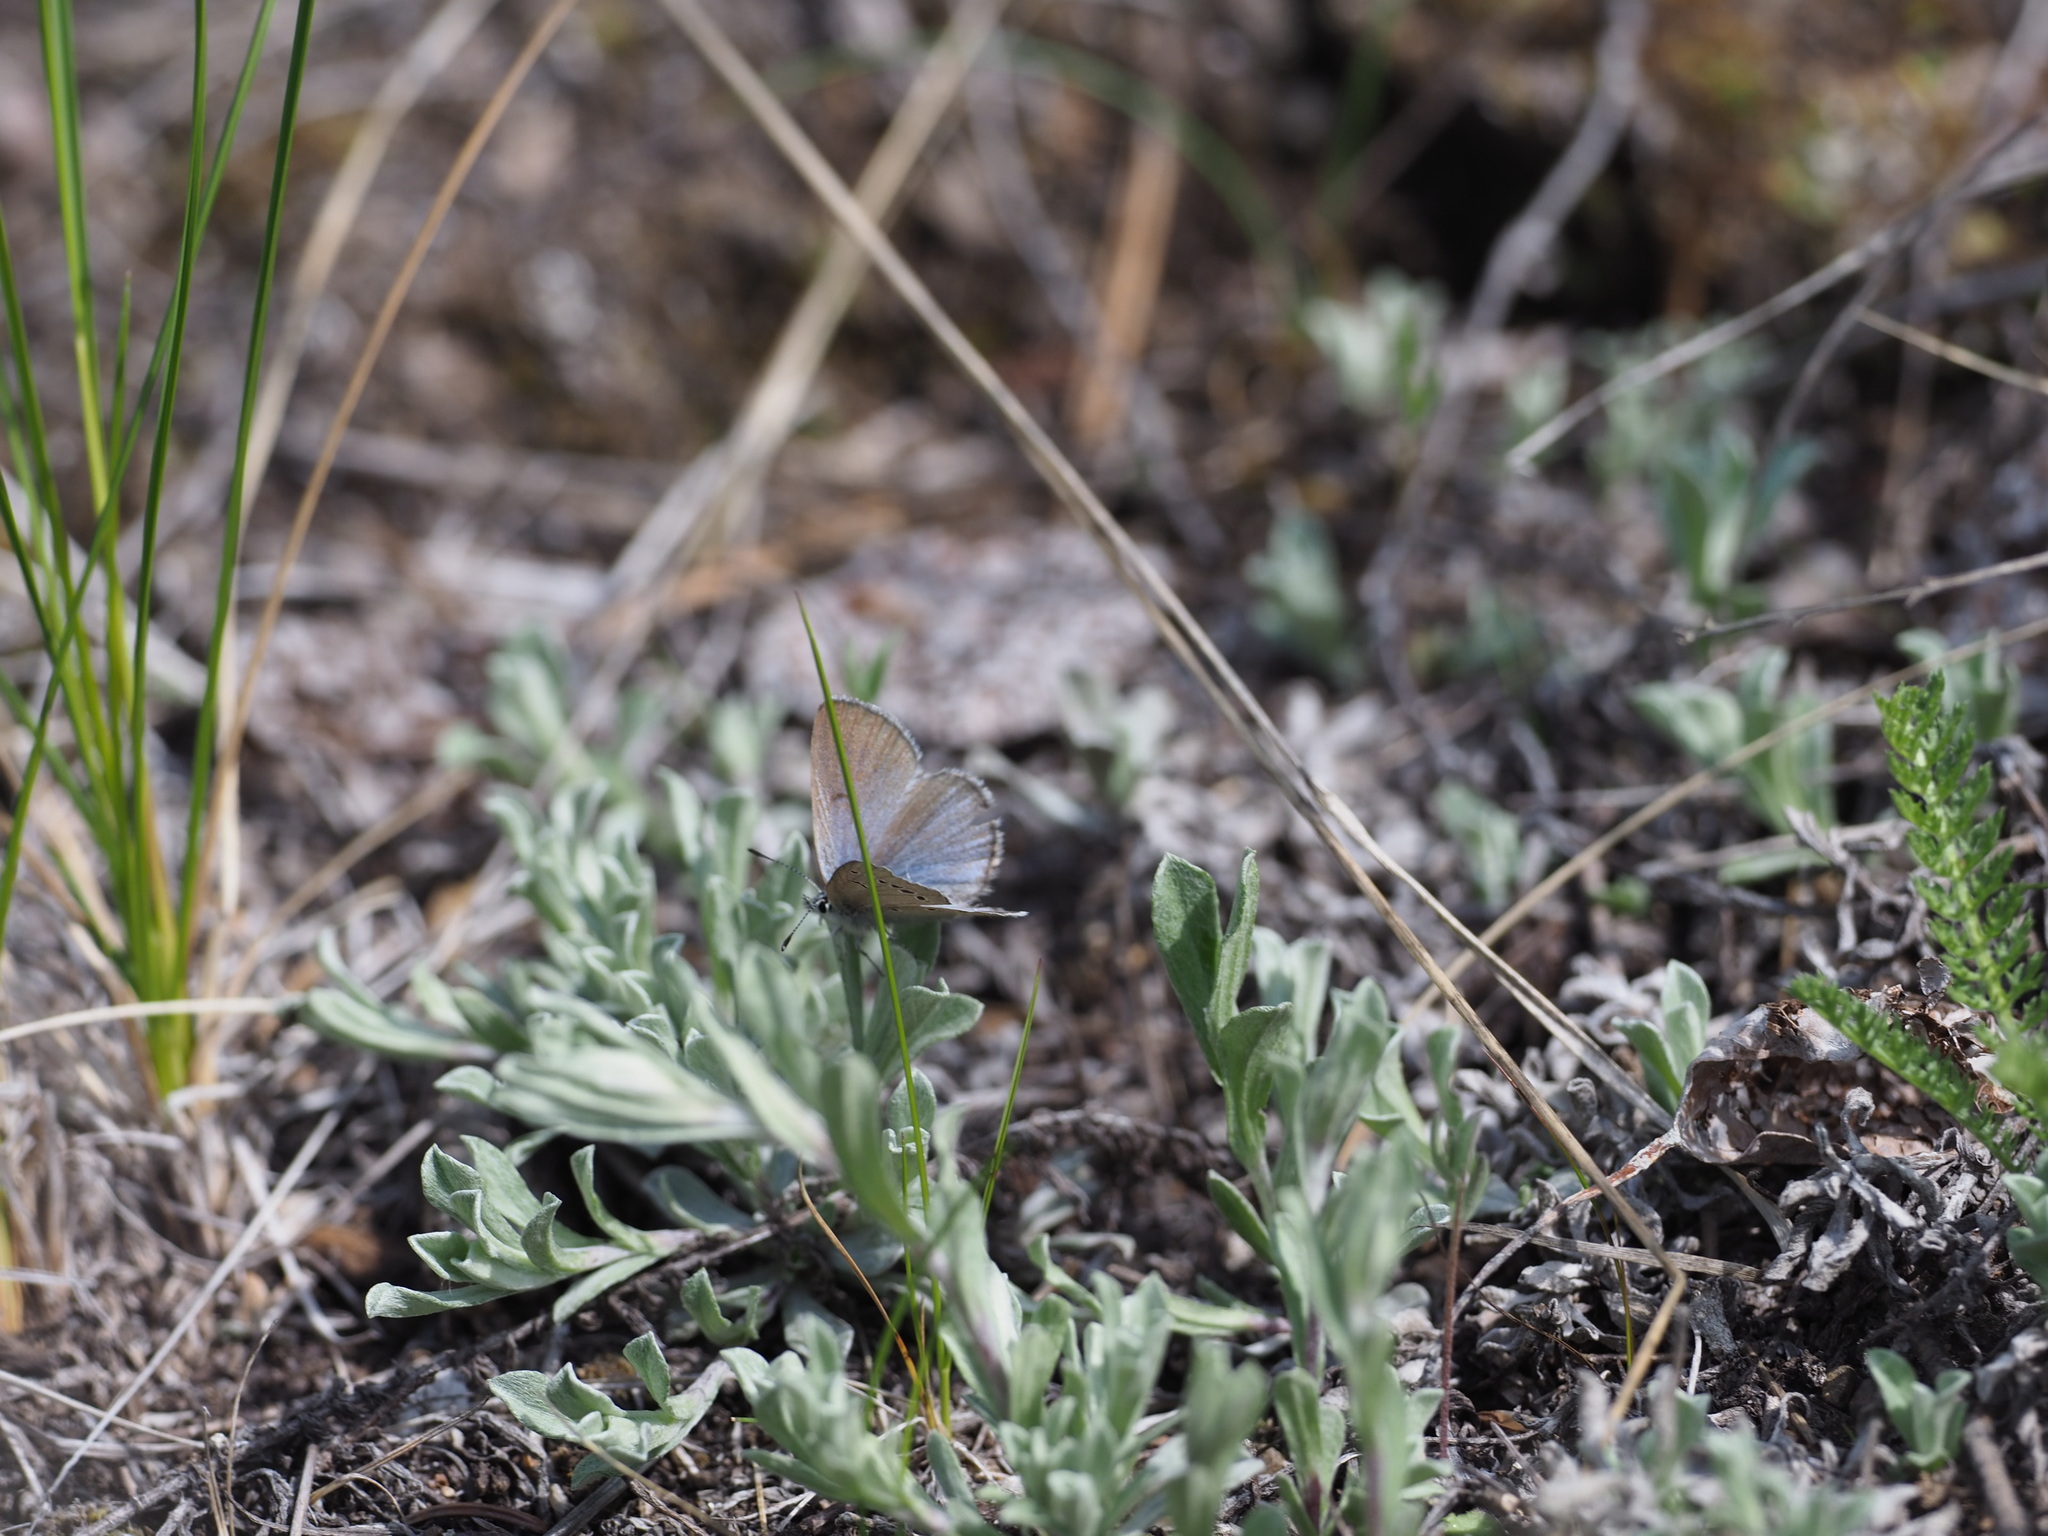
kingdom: Animalia
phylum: Arthropoda
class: Insecta
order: Lepidoptera
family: Lycaenidae
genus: Glaucopsyche
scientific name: Glaucopsyche lygdamus
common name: Silvery blue
